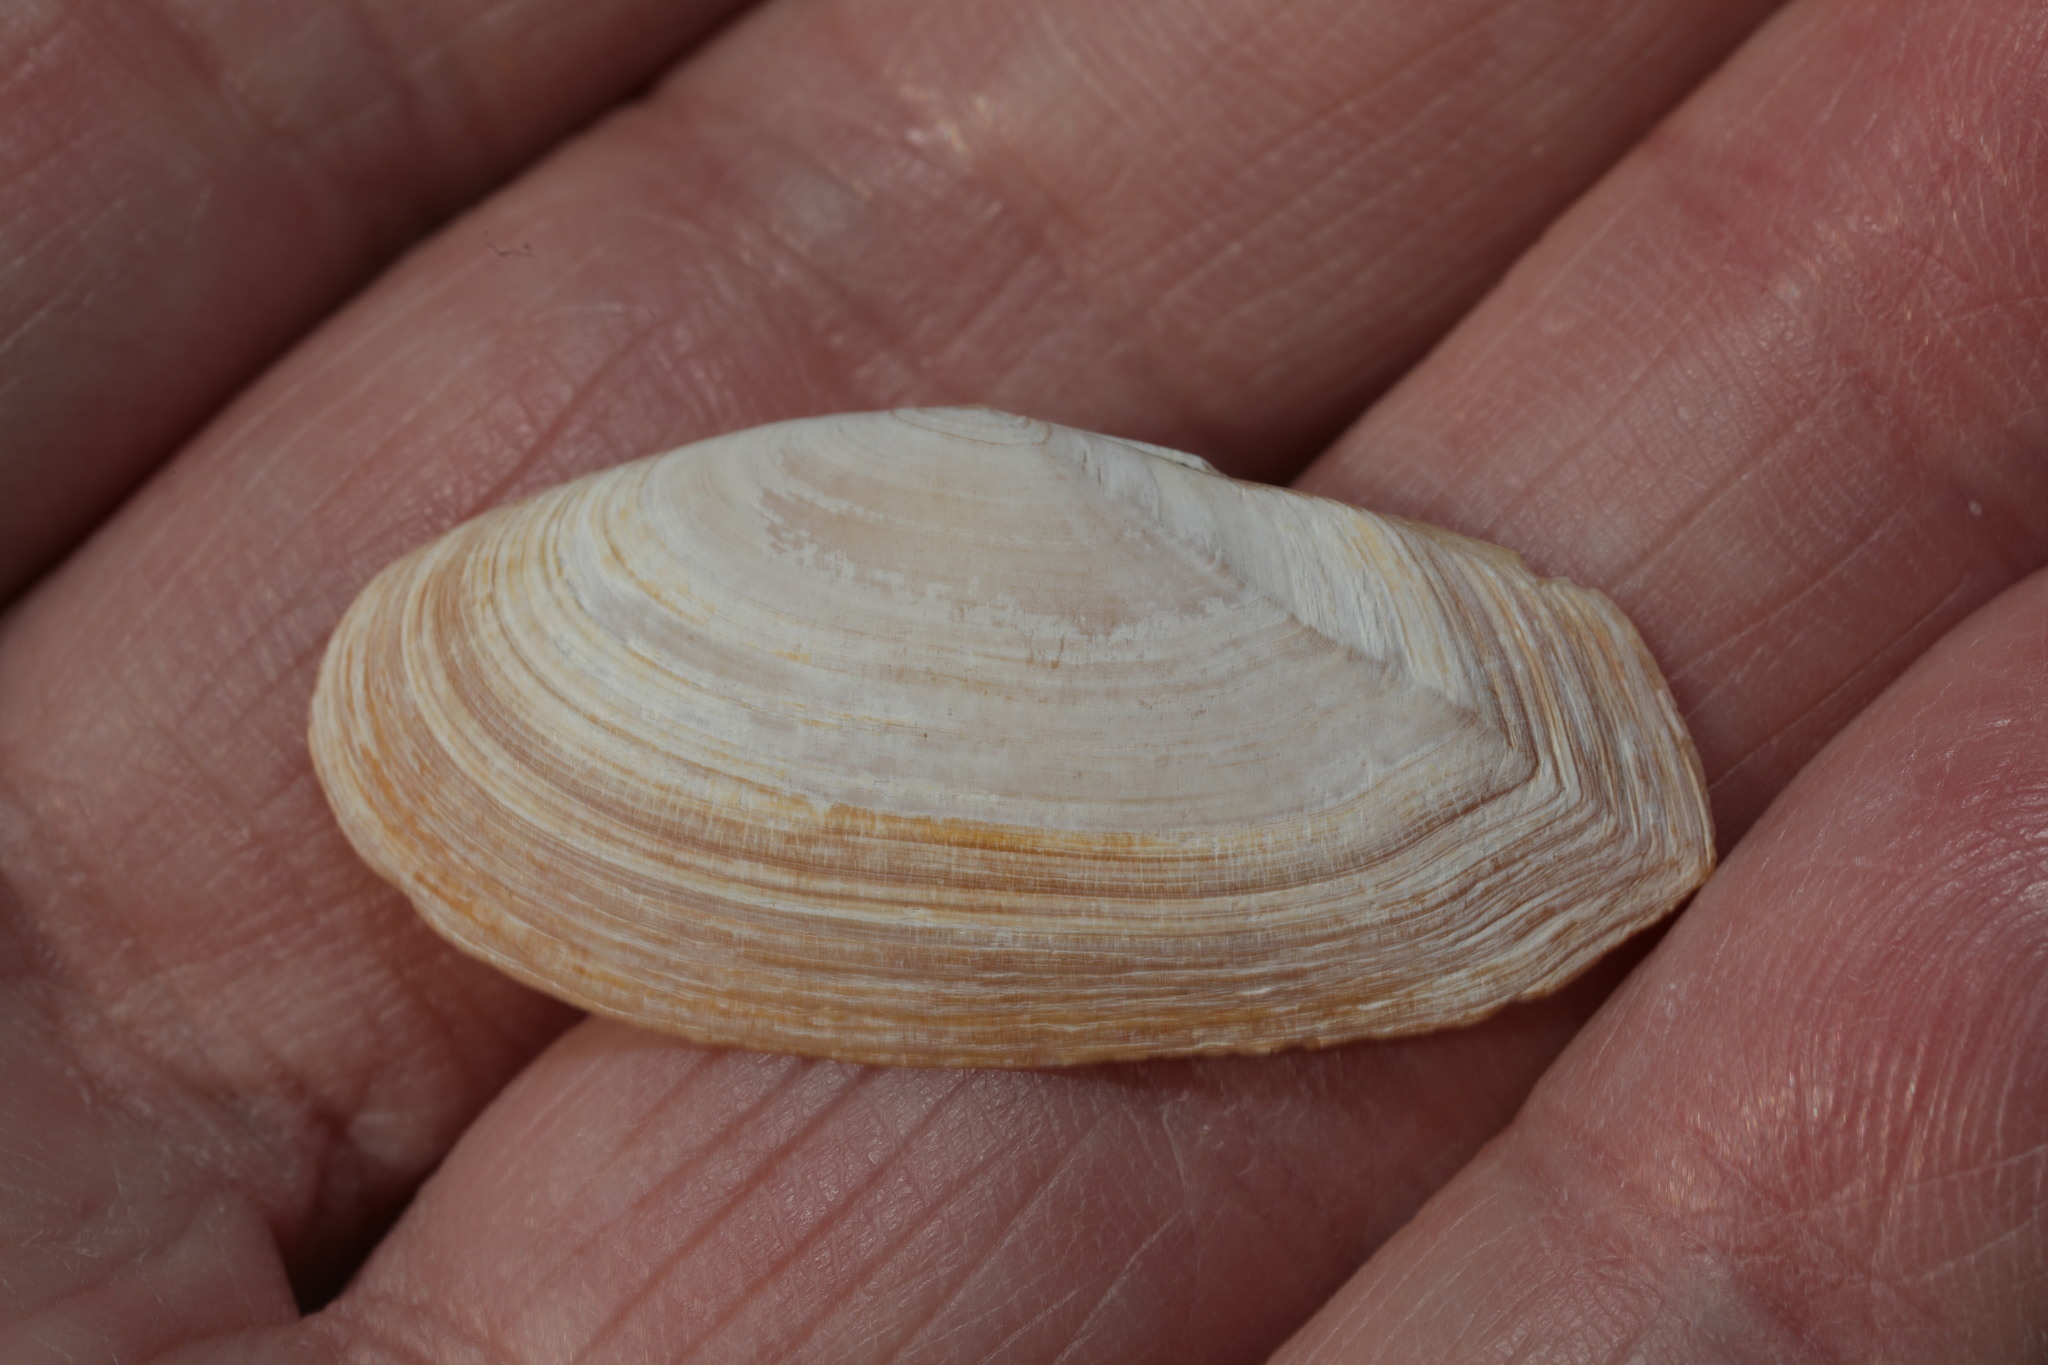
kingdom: Animalia
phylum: Mollusca
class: Bivalvia
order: Cardiida
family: Psammobiidae
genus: Gari
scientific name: Gari fervensis
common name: Faroe sunset shell
